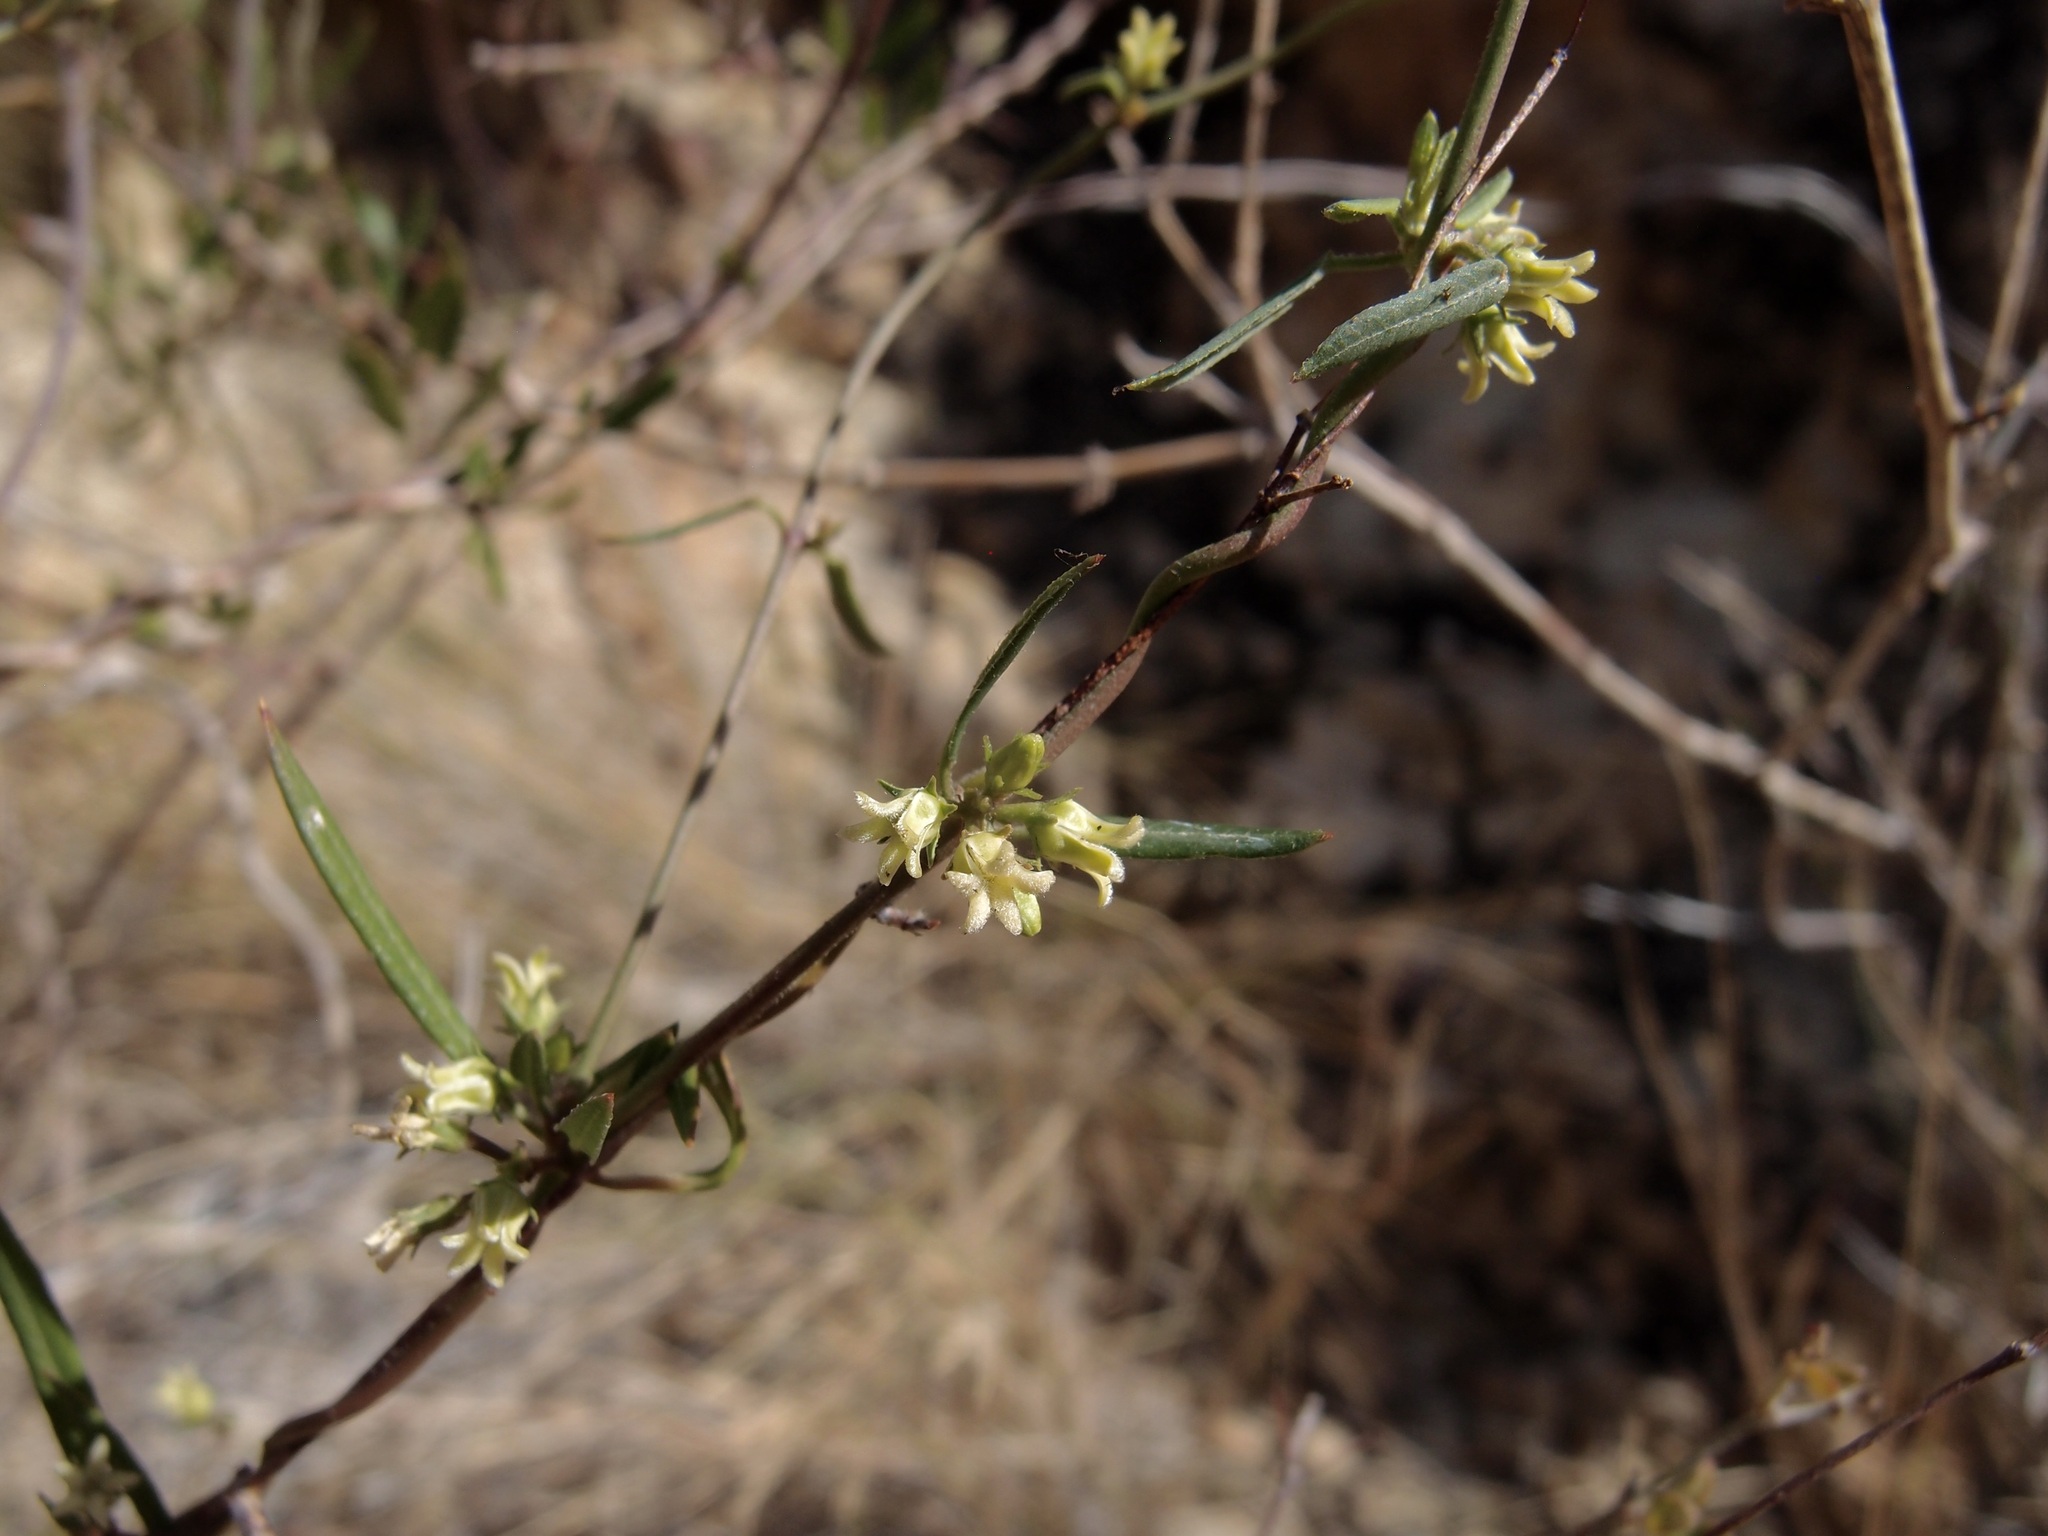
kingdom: Plantae
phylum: Tracheophyta
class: Magnoliopsida
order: Gentianales
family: Apocynaceae
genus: Metastelma
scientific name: Metastelma arizonicum
